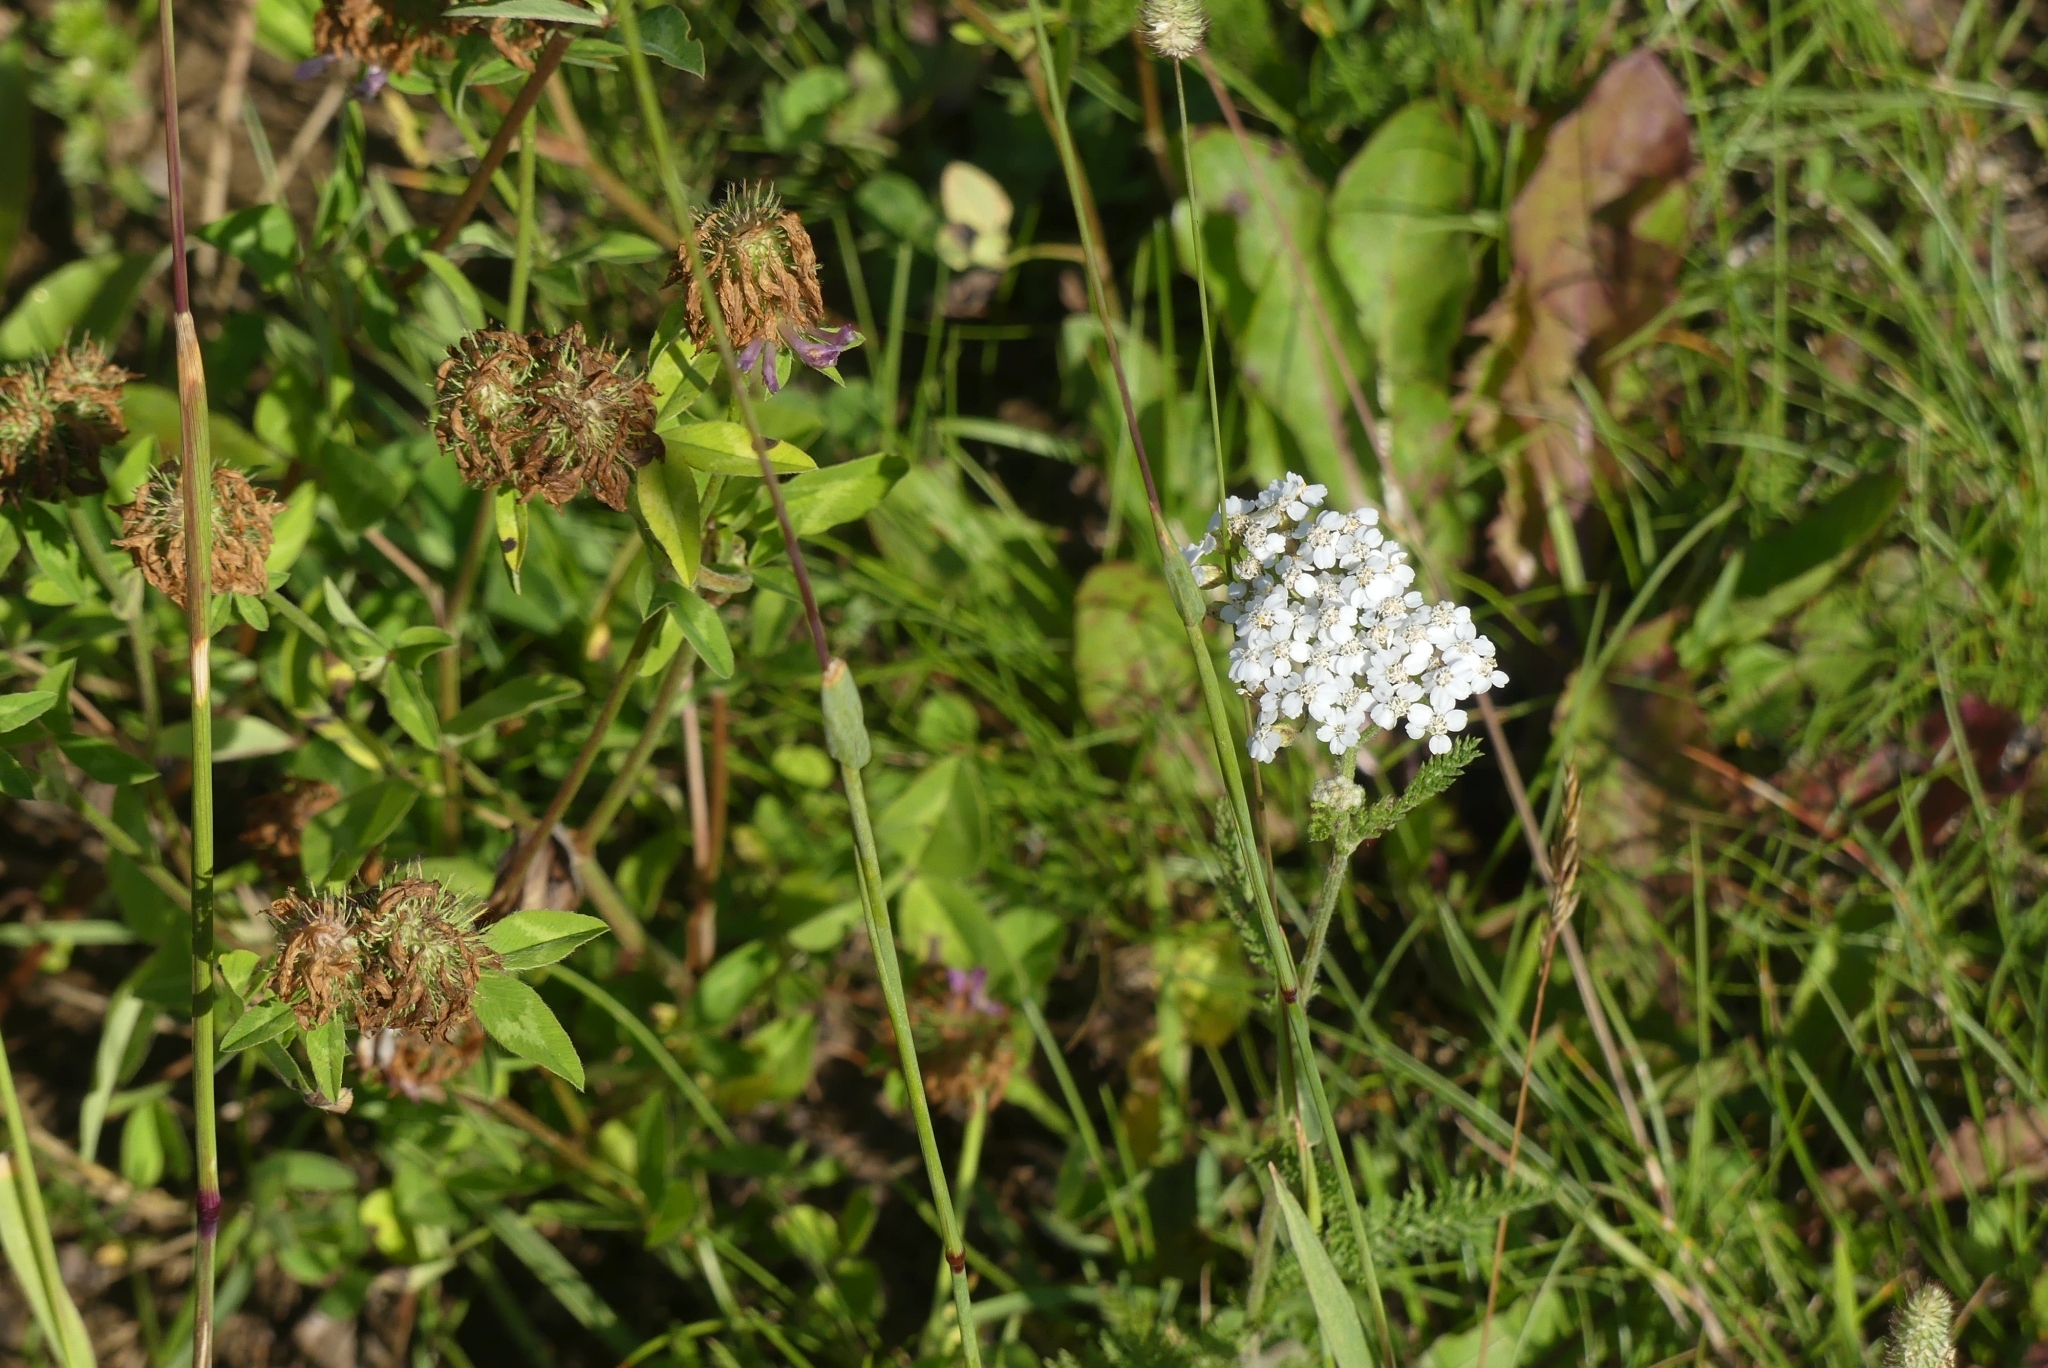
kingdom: Plantae
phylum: Tracheophyta
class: Magnoliopsida
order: Asterales
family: Asteraceae
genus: Achillea
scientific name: Achillea millefolium
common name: Yarrow
